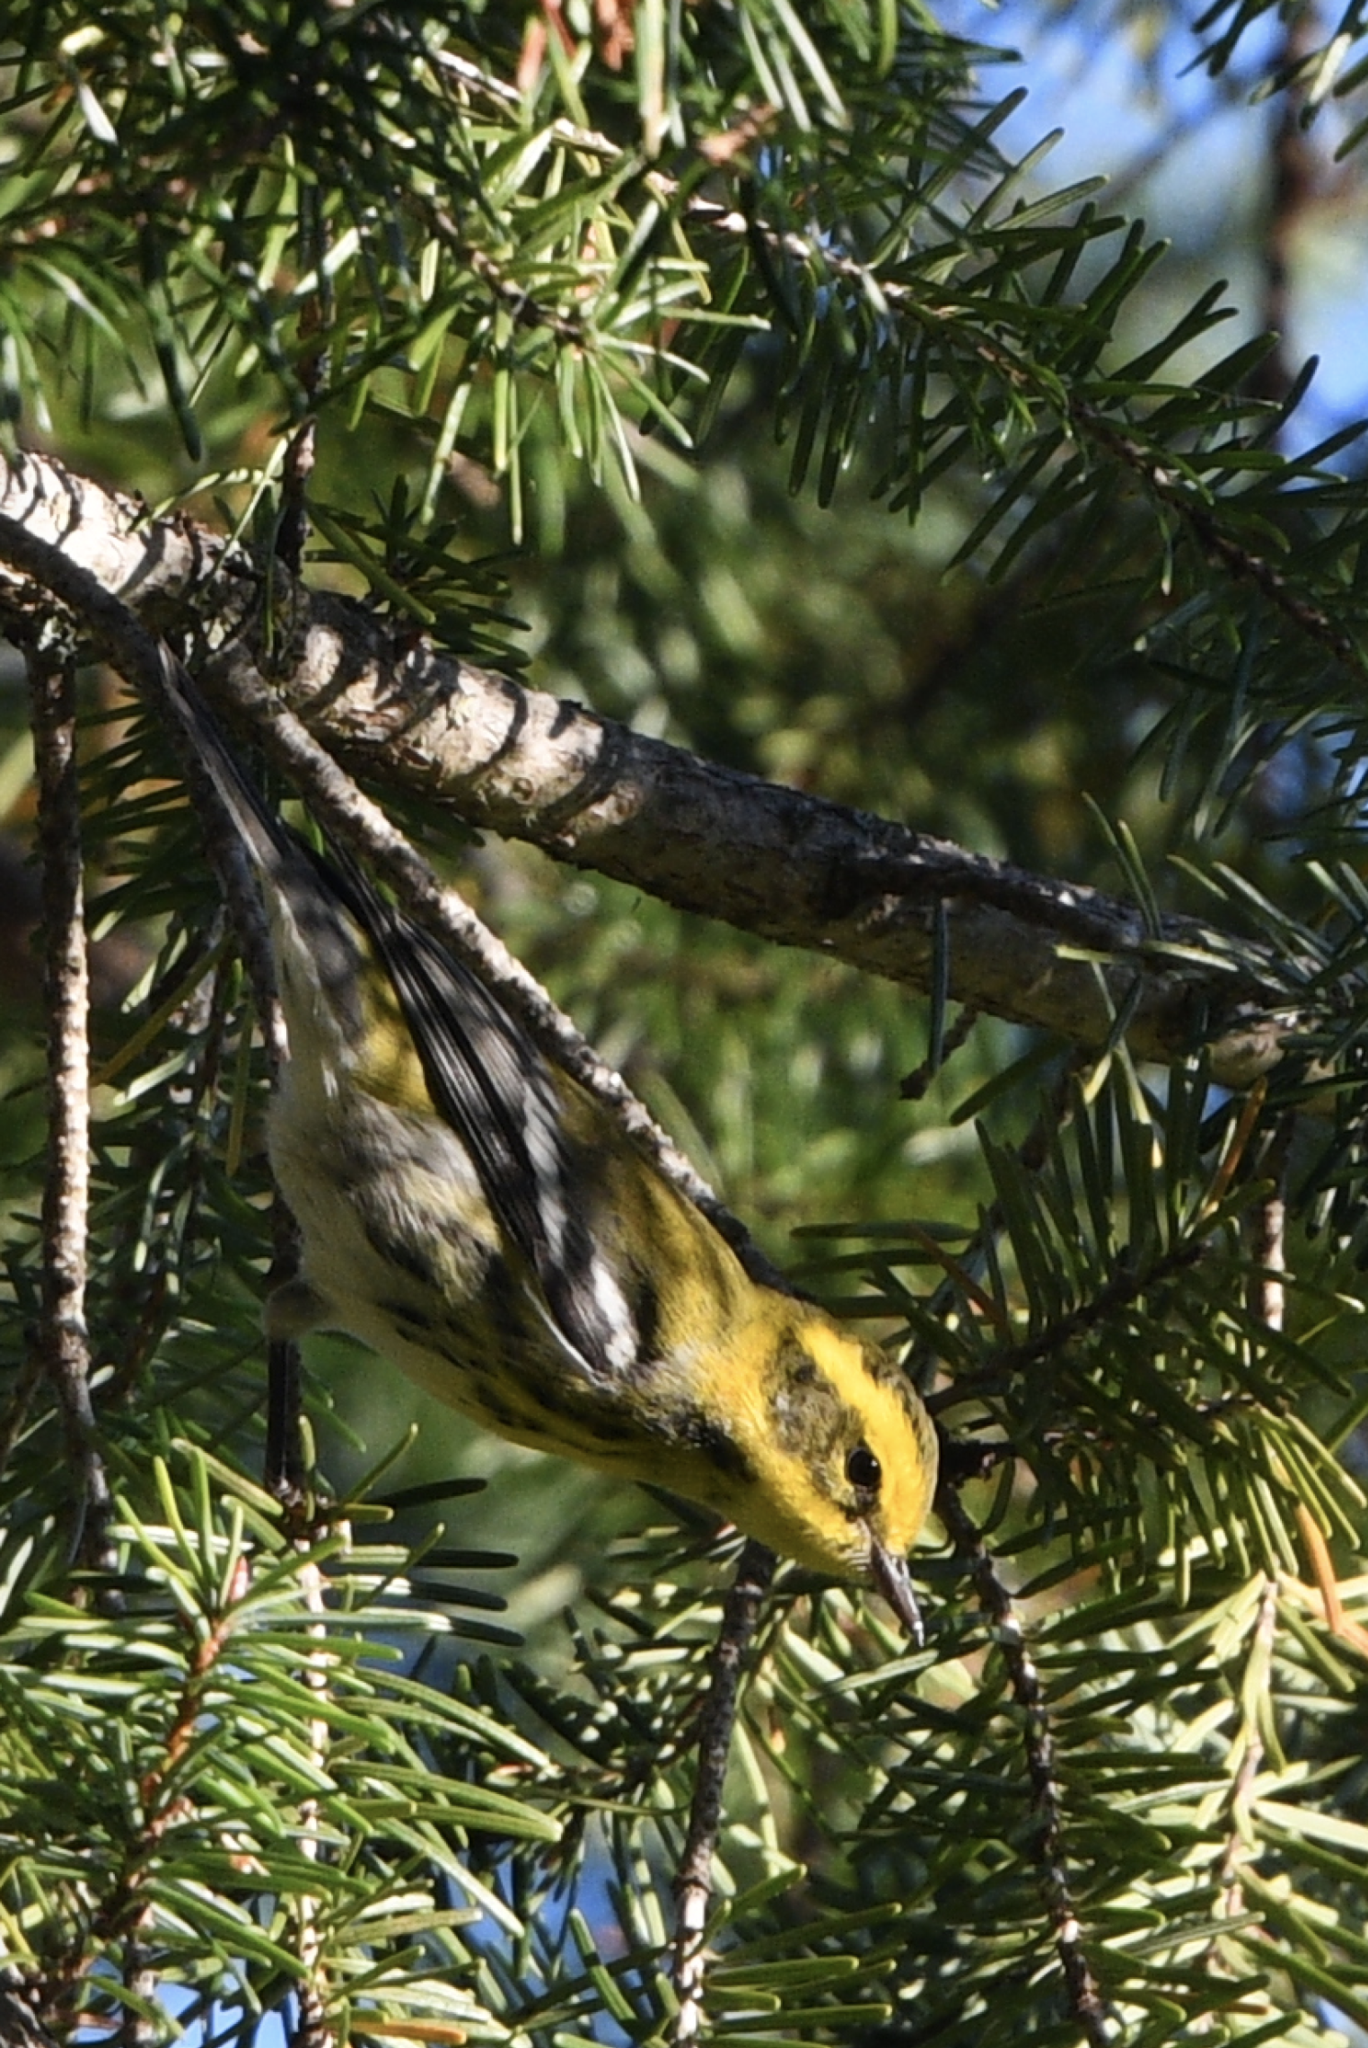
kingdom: Animalia
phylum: Chordata
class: Aves
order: Passeriformes
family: Parulidae
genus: Setophaga
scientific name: Setophaga townsendi
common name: Townsend's warbler
